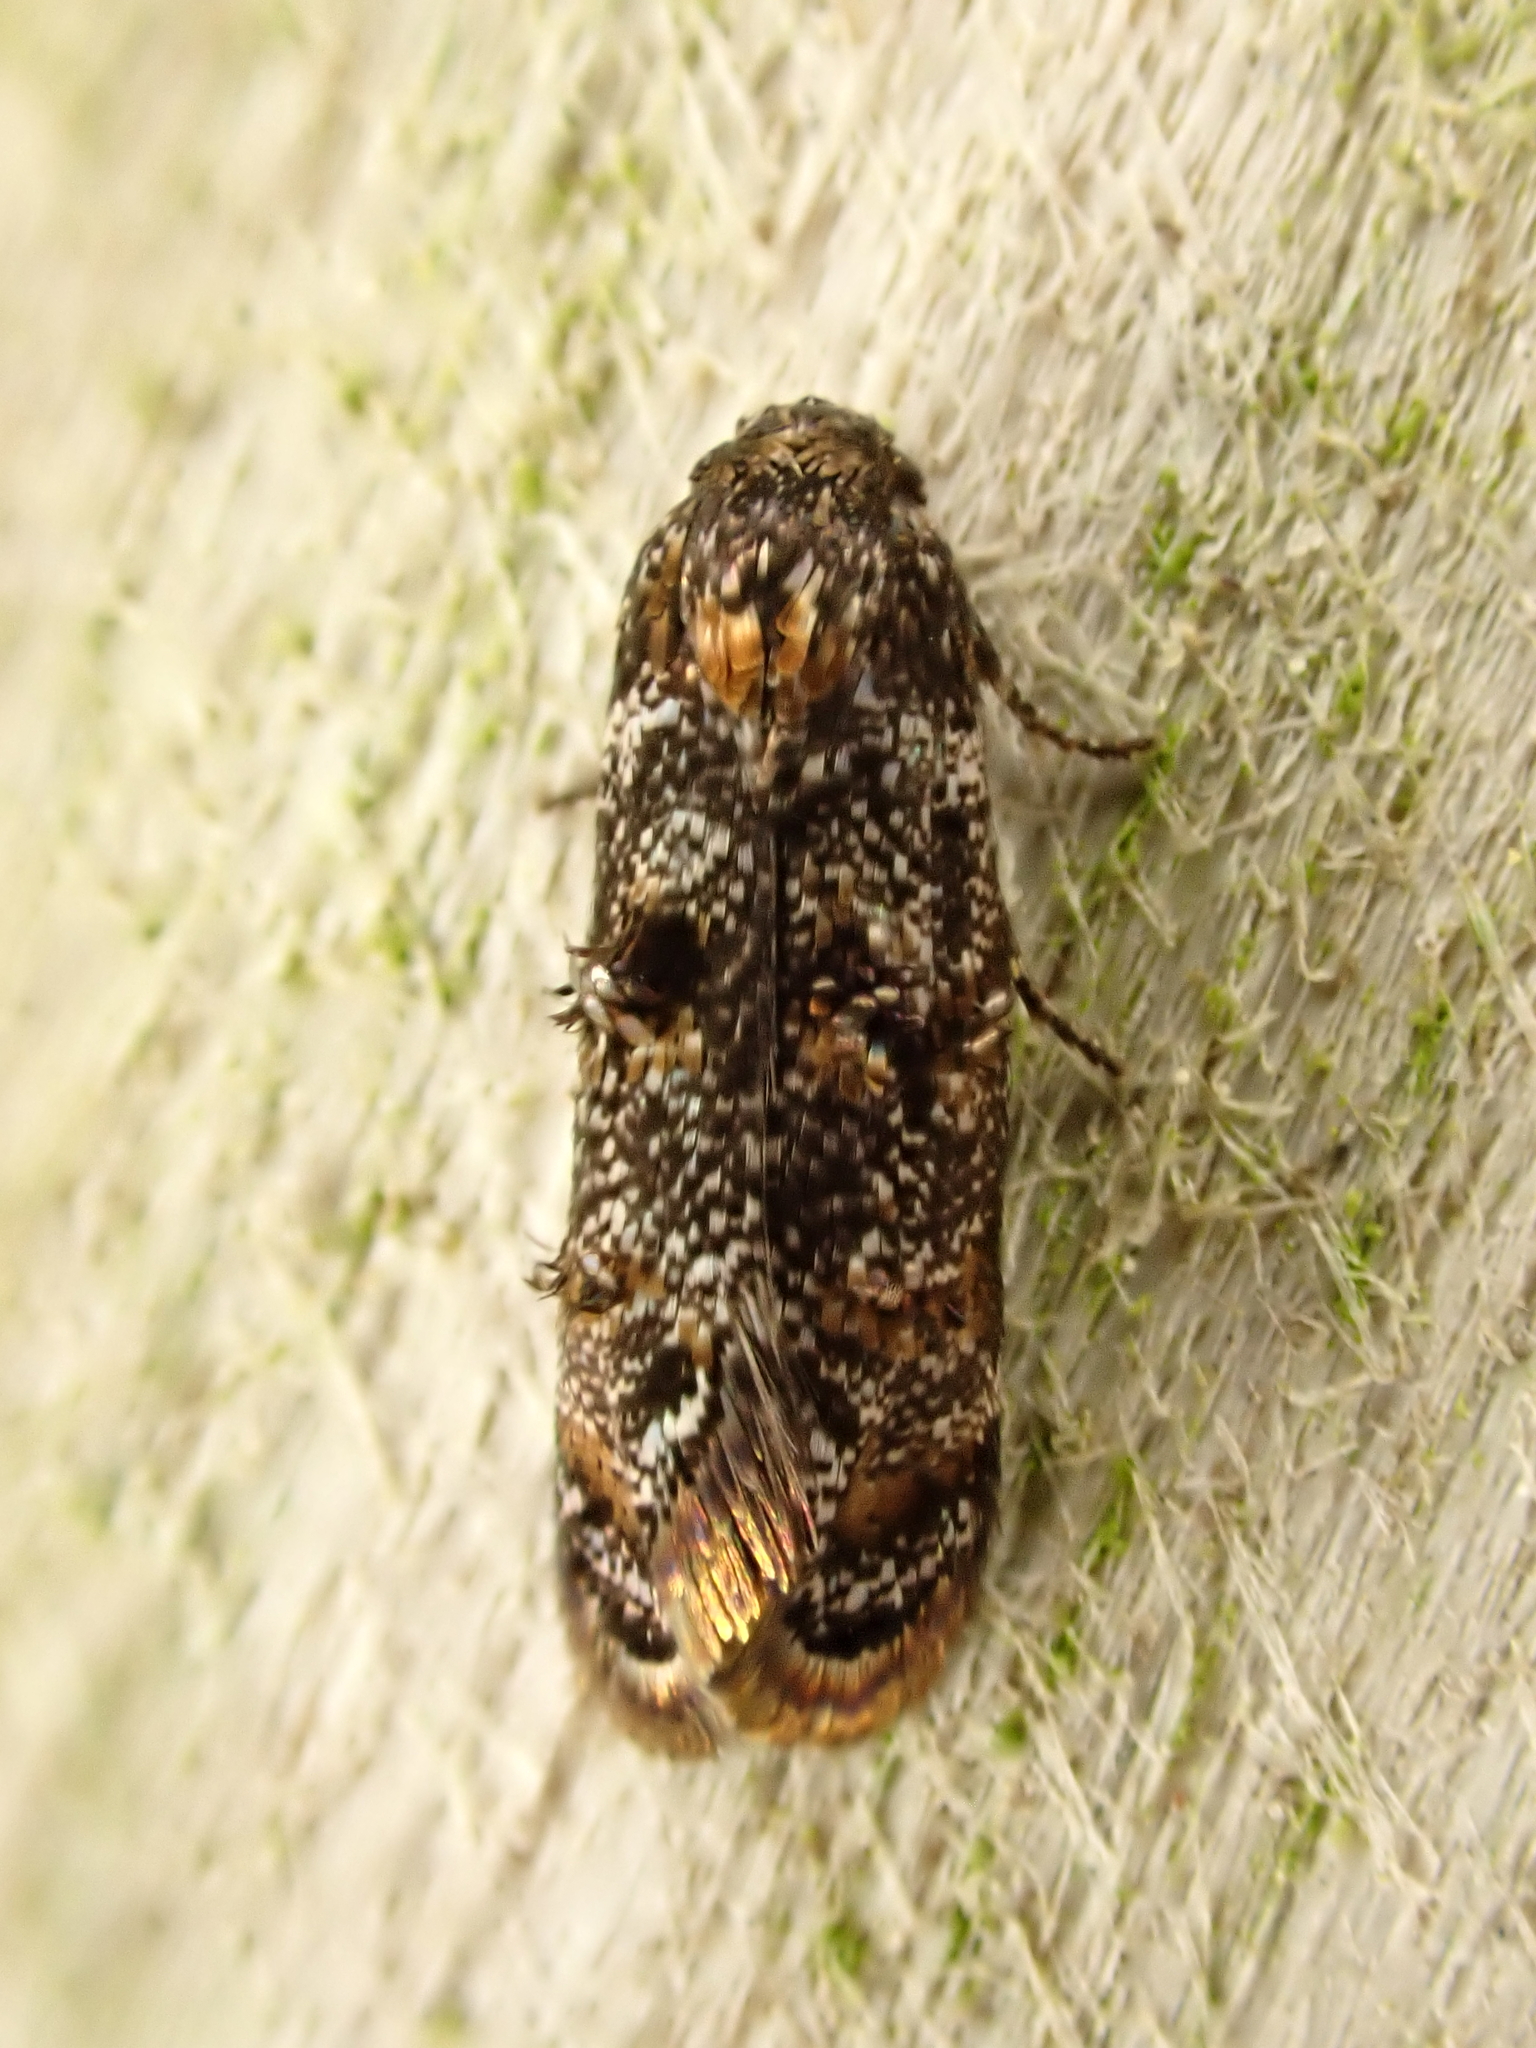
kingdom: Animalia
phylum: Arthropoda
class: Insecta
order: Lepidoptera
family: Oecophoridae
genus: Corocosma
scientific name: Corocosma memorabilis
